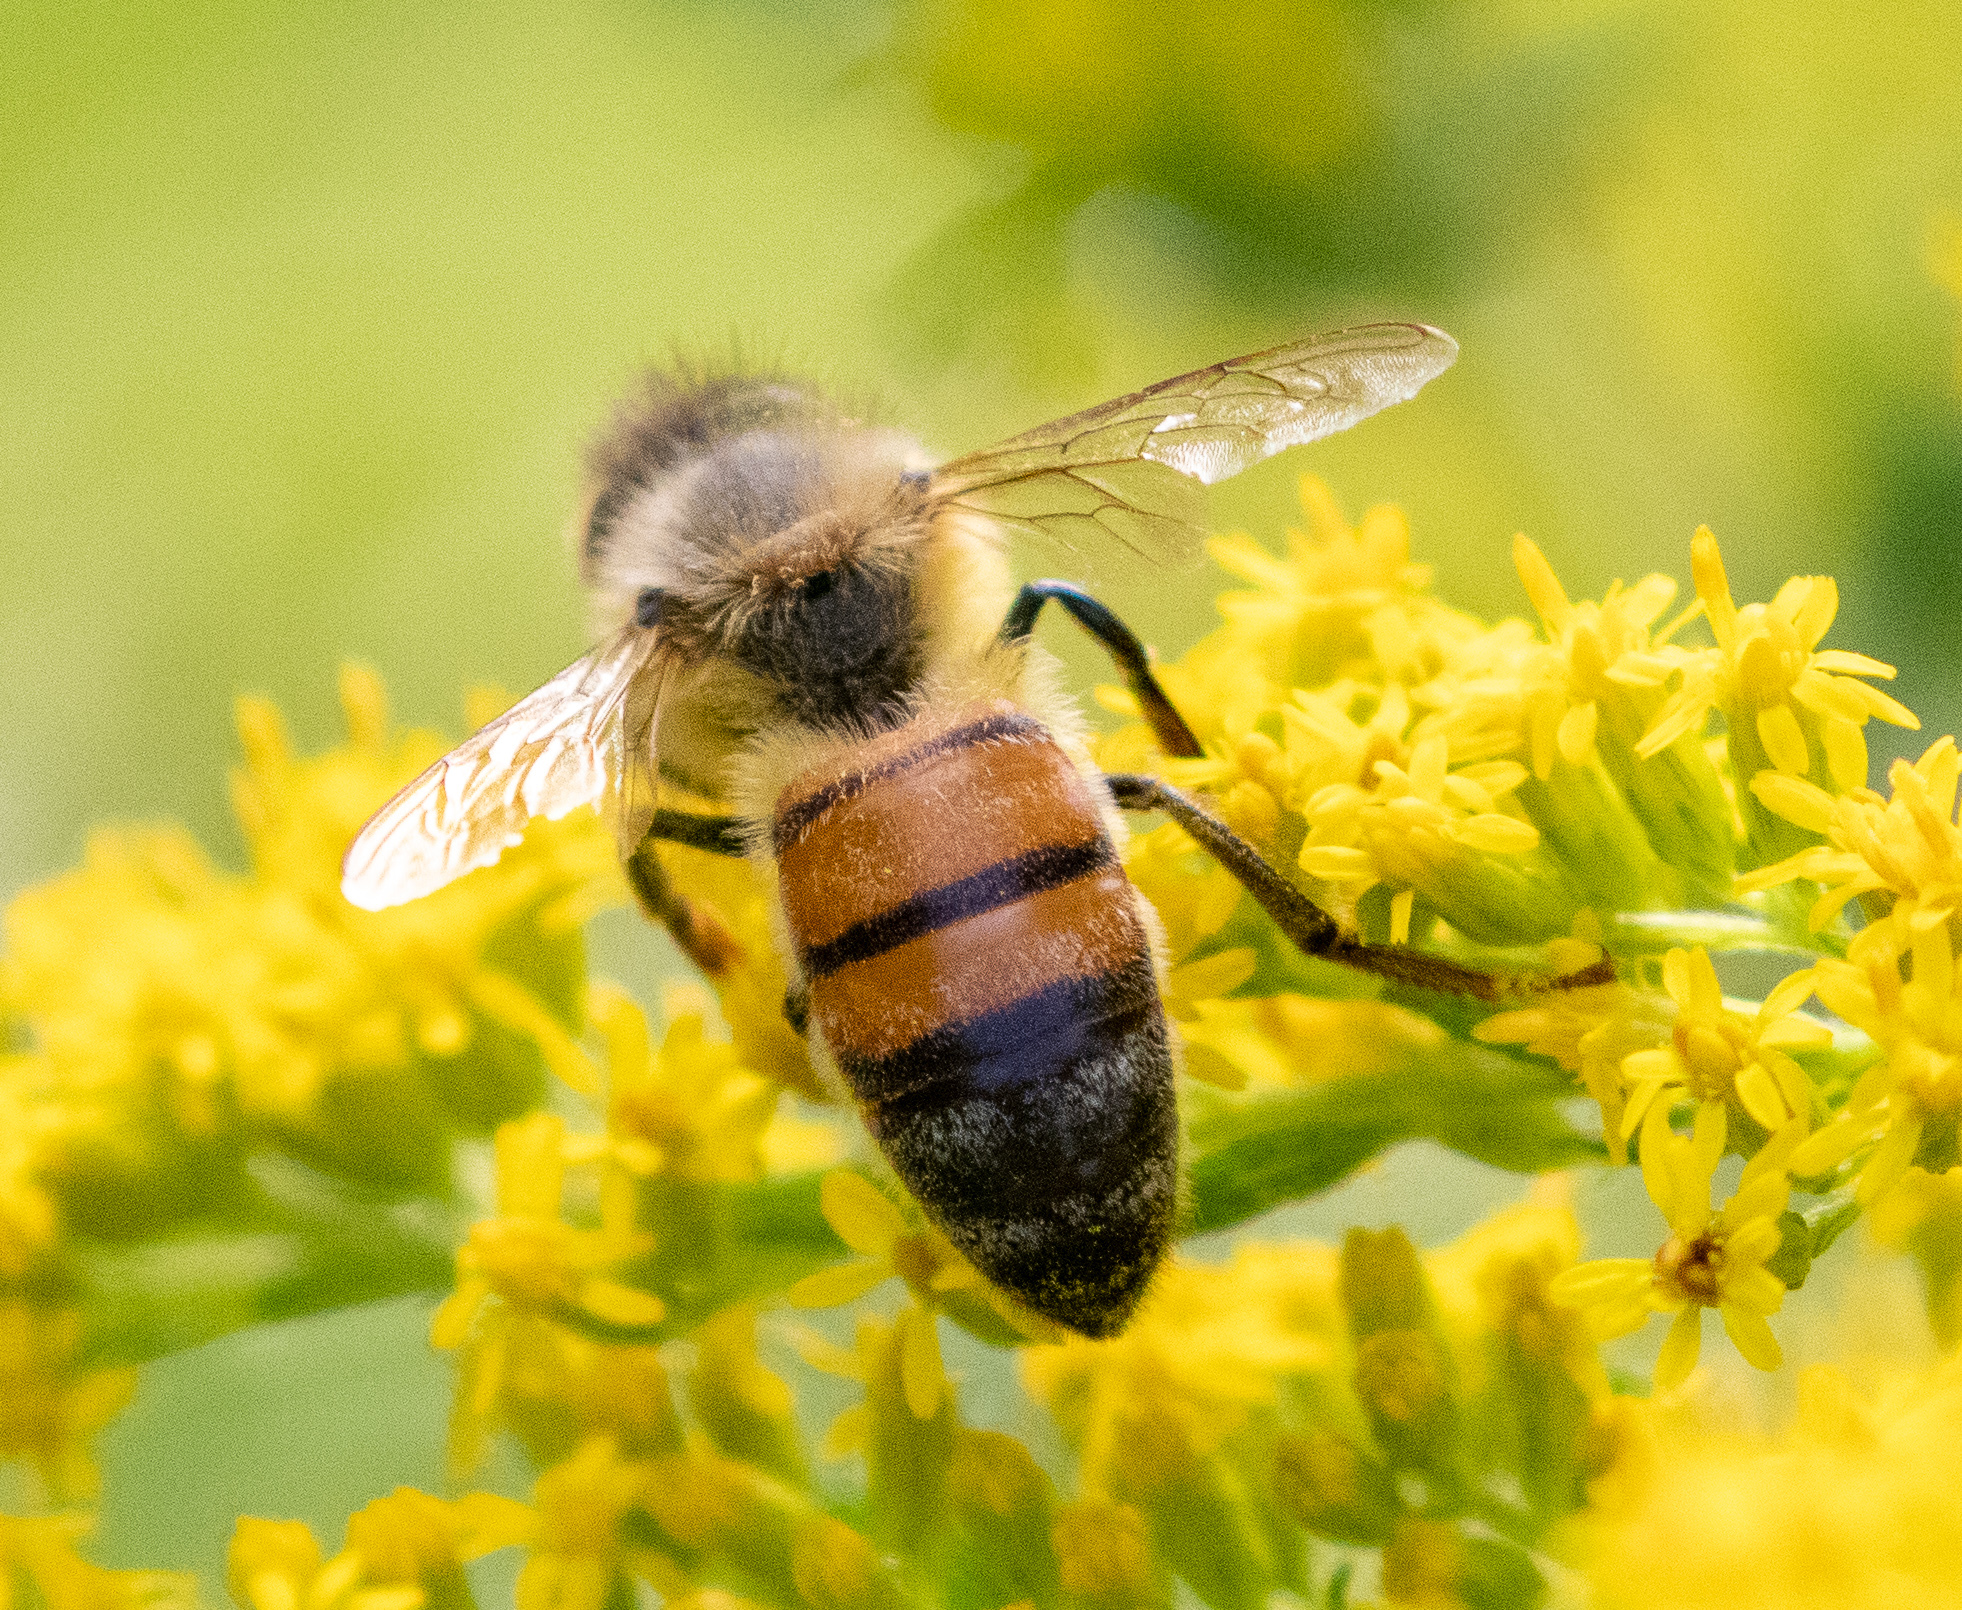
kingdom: Animalia
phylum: Arthropoda
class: Insecta
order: Hymenoptera
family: Apidae
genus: Apis
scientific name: Apis mellifera
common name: Honey bee
